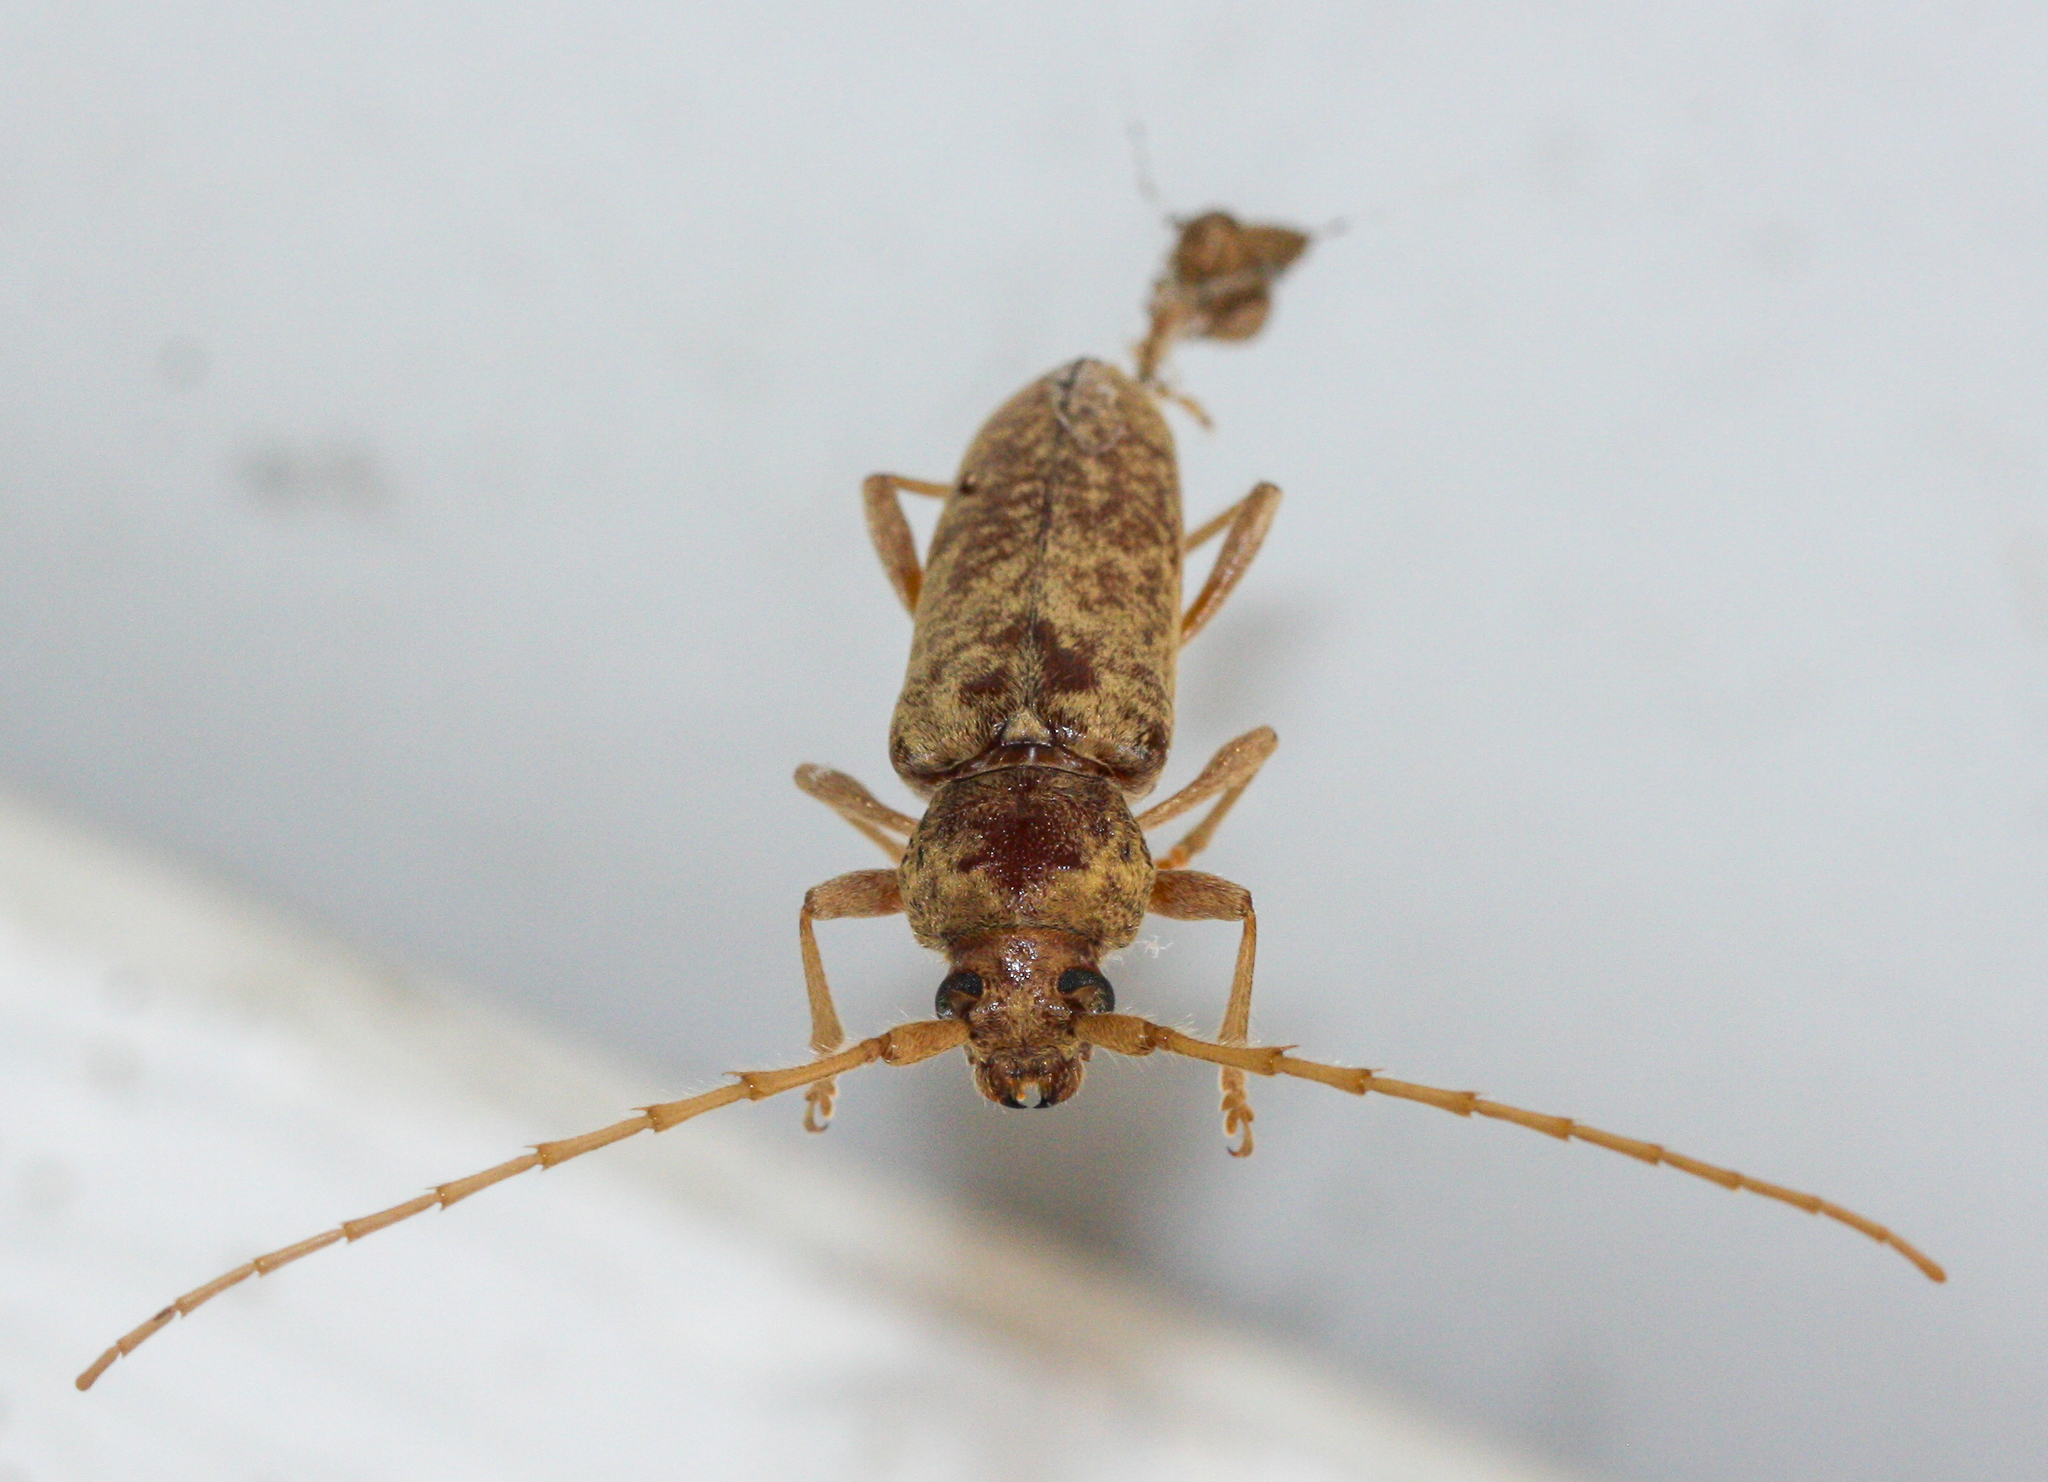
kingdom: Animalia
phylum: Arthropoda
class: Insecta
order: Coleoptera
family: Cerambycidae
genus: Enaphalodes
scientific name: Enaphalodes rufulus
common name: Red oak borer
